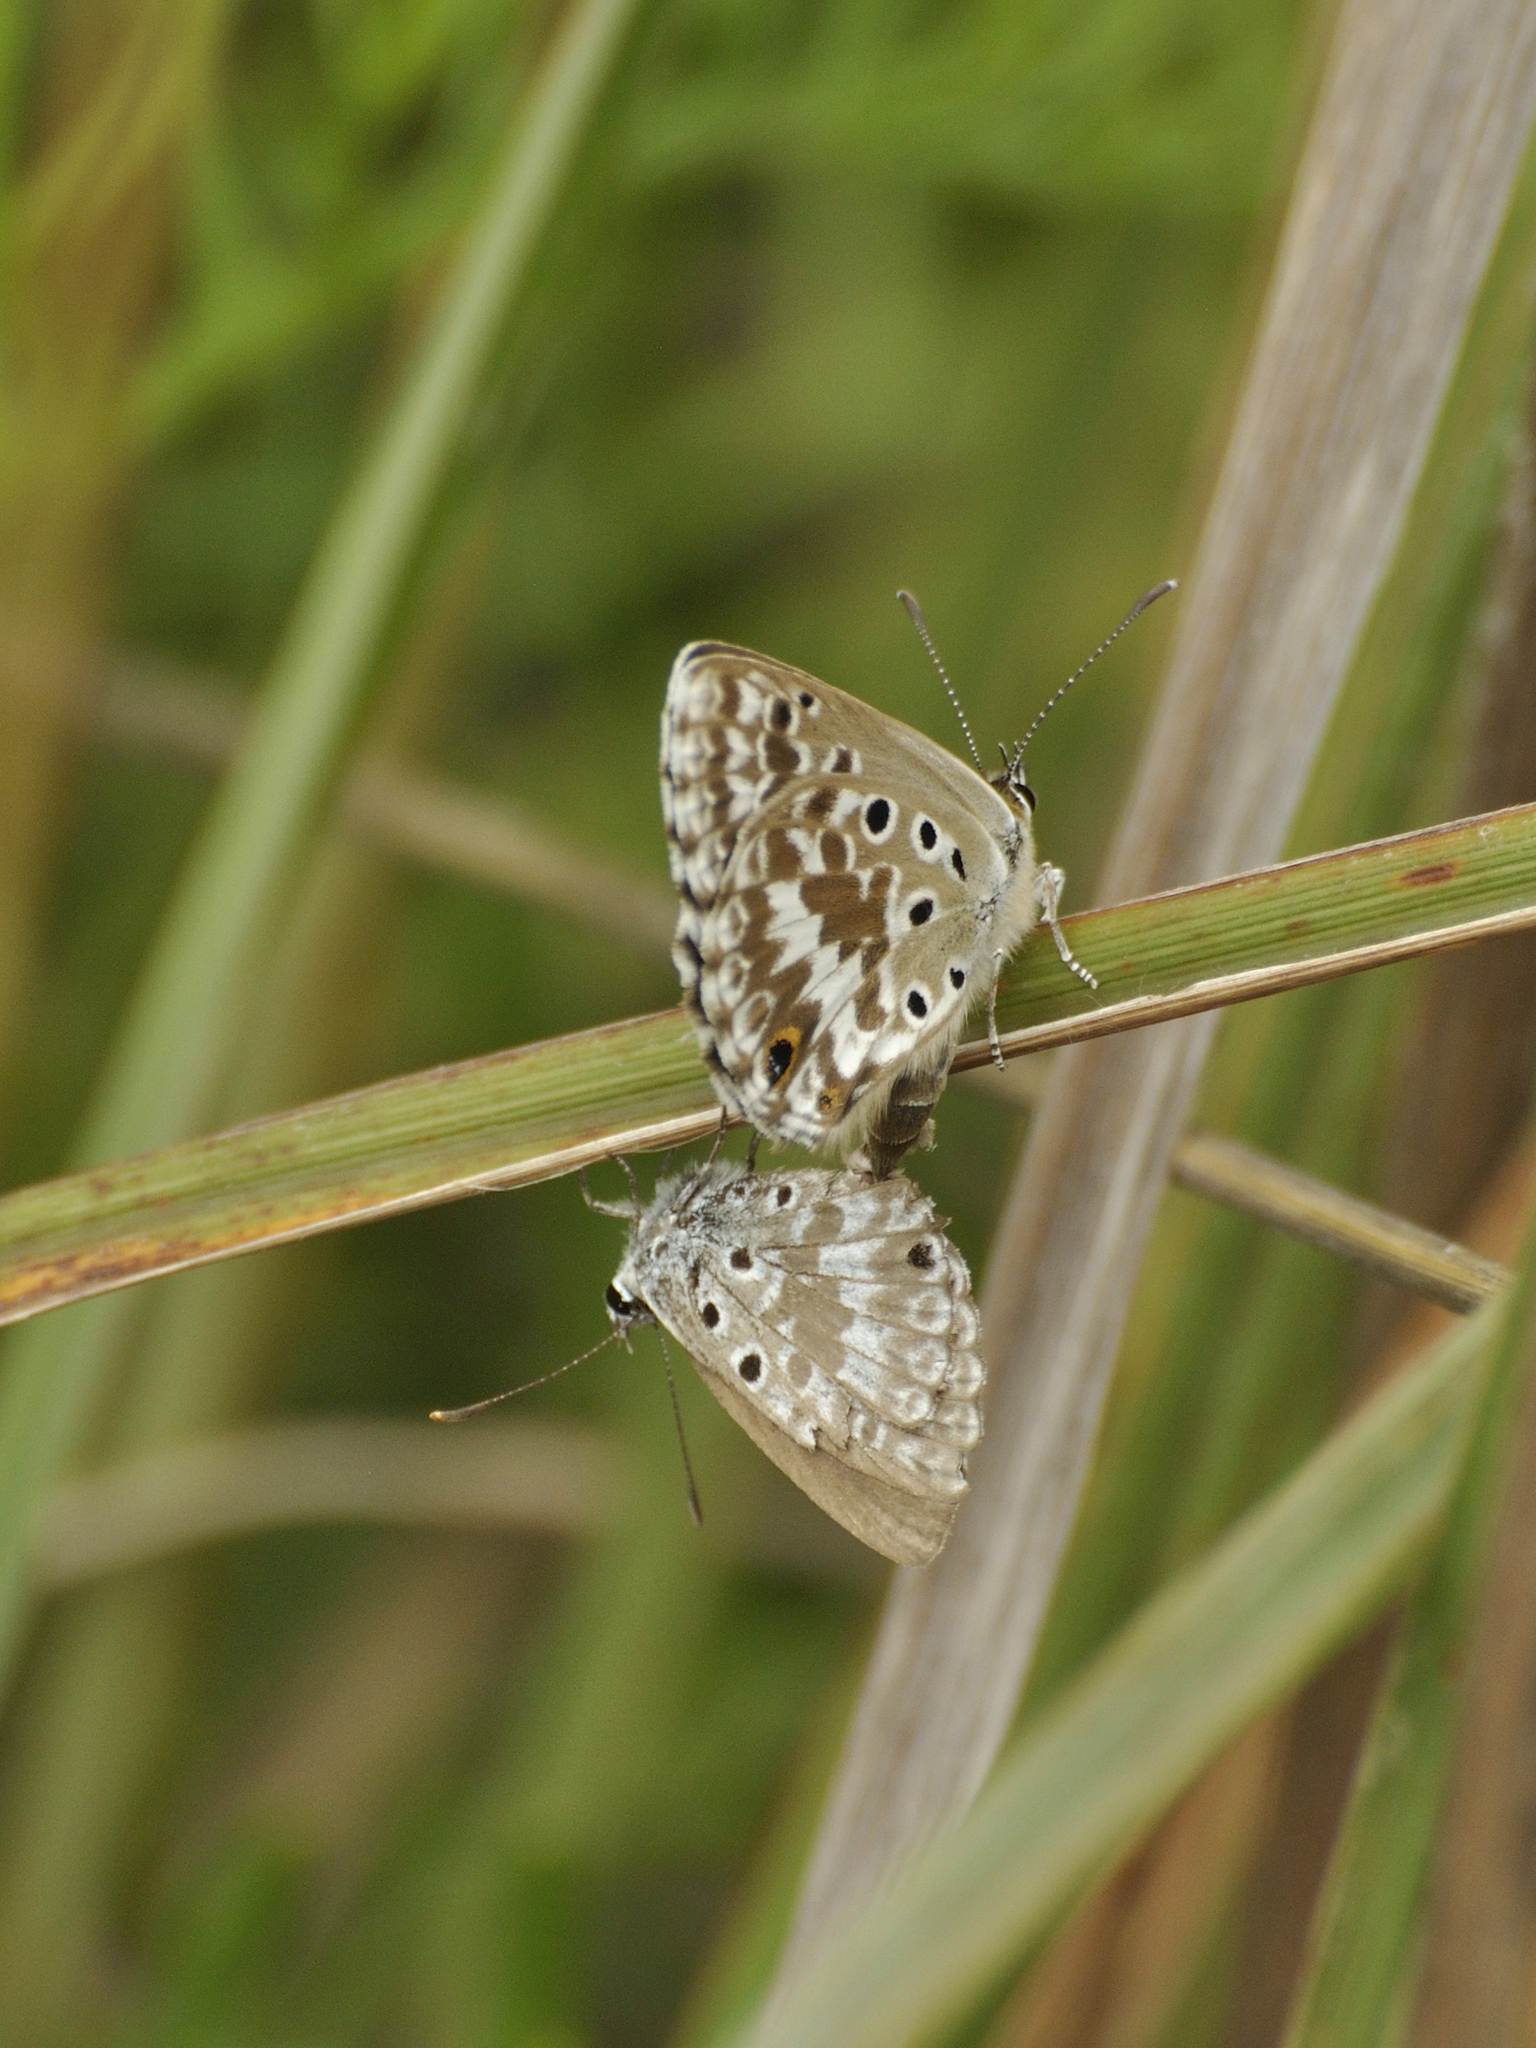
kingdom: Animalia
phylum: Arthropoda
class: Insecta
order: Lepidoptera
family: Lycaenidae
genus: Lepidochrysops
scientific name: Lepidochrysops ketsi
